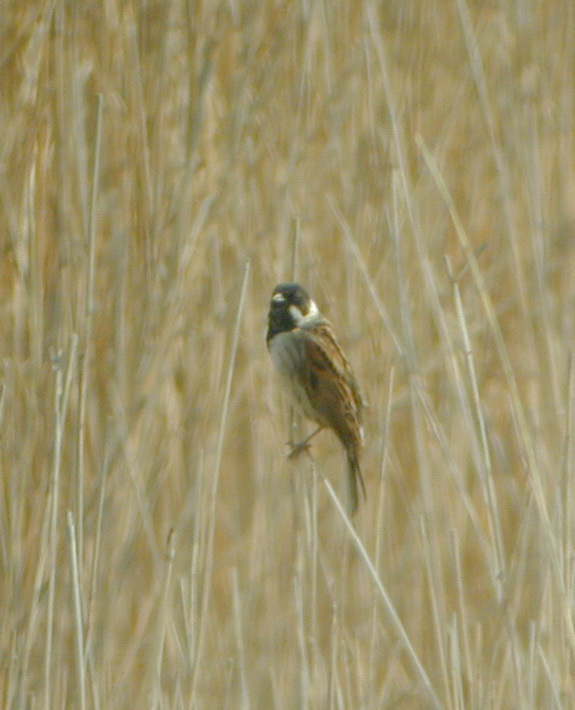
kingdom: Animalia
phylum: Chordata
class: Aves
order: Passeriformes
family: Emberizidae
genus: Emberiza
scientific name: Emberiza schoeniclus
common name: Reed bunting
